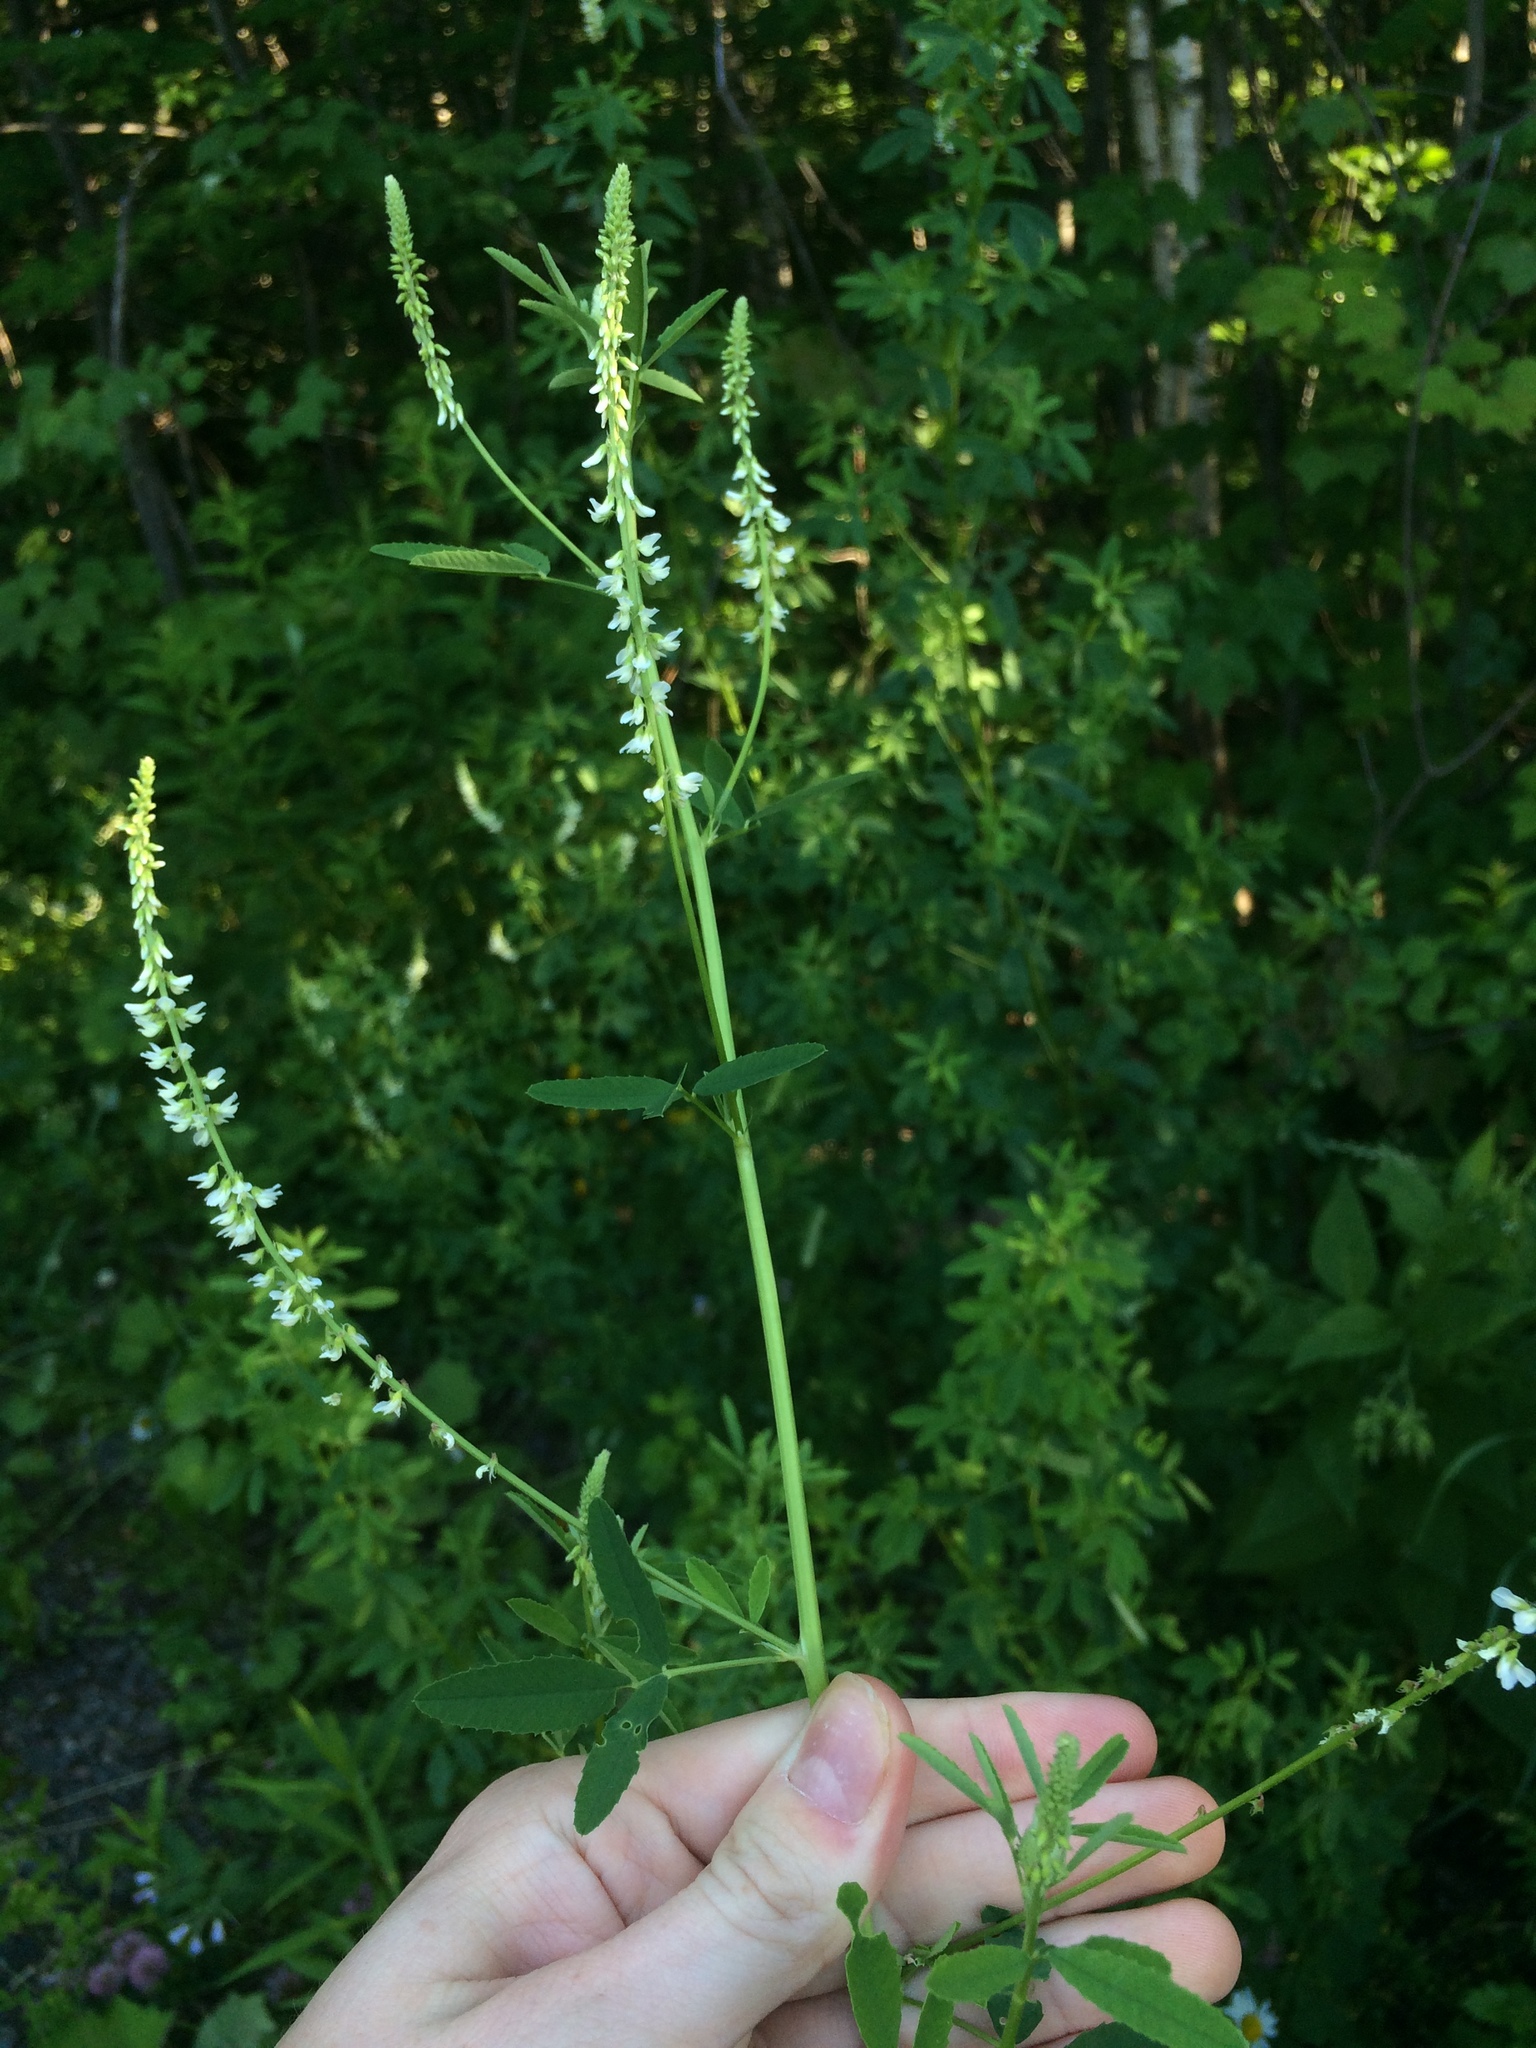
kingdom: Plantae
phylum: Tracheophyta
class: Magnoliopsida
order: Fabales
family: Fabaceae
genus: Melilotus
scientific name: Melilotus albus
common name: White melilot
